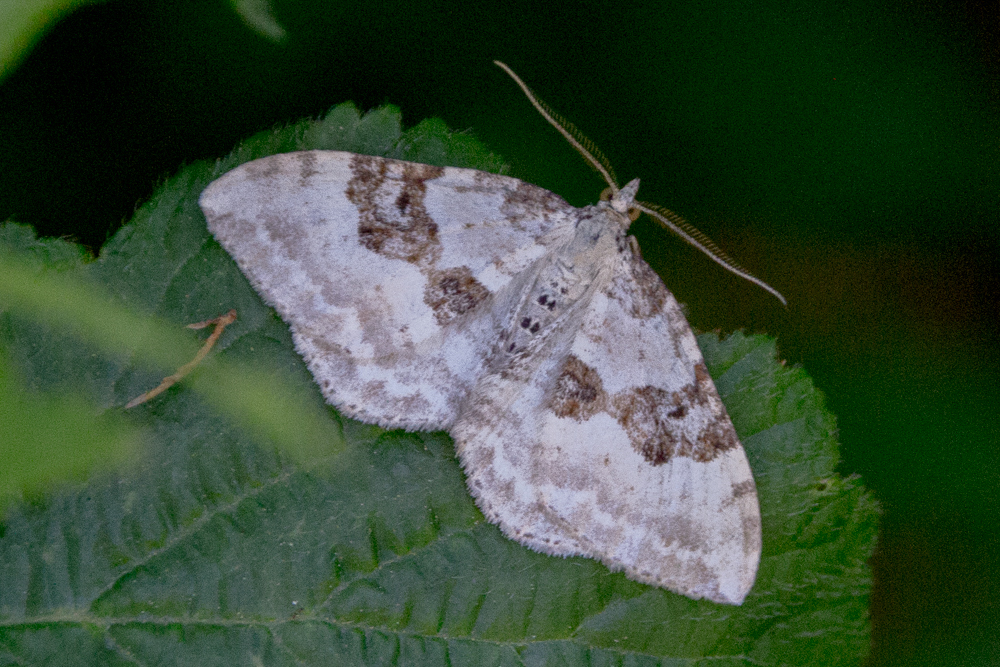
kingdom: Animalia
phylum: Arthropoda
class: Insecta
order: Lepidoptera
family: Geometridae
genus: Xanthorhoe
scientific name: Xanthorhoe montanata
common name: Silver-ground carpet
